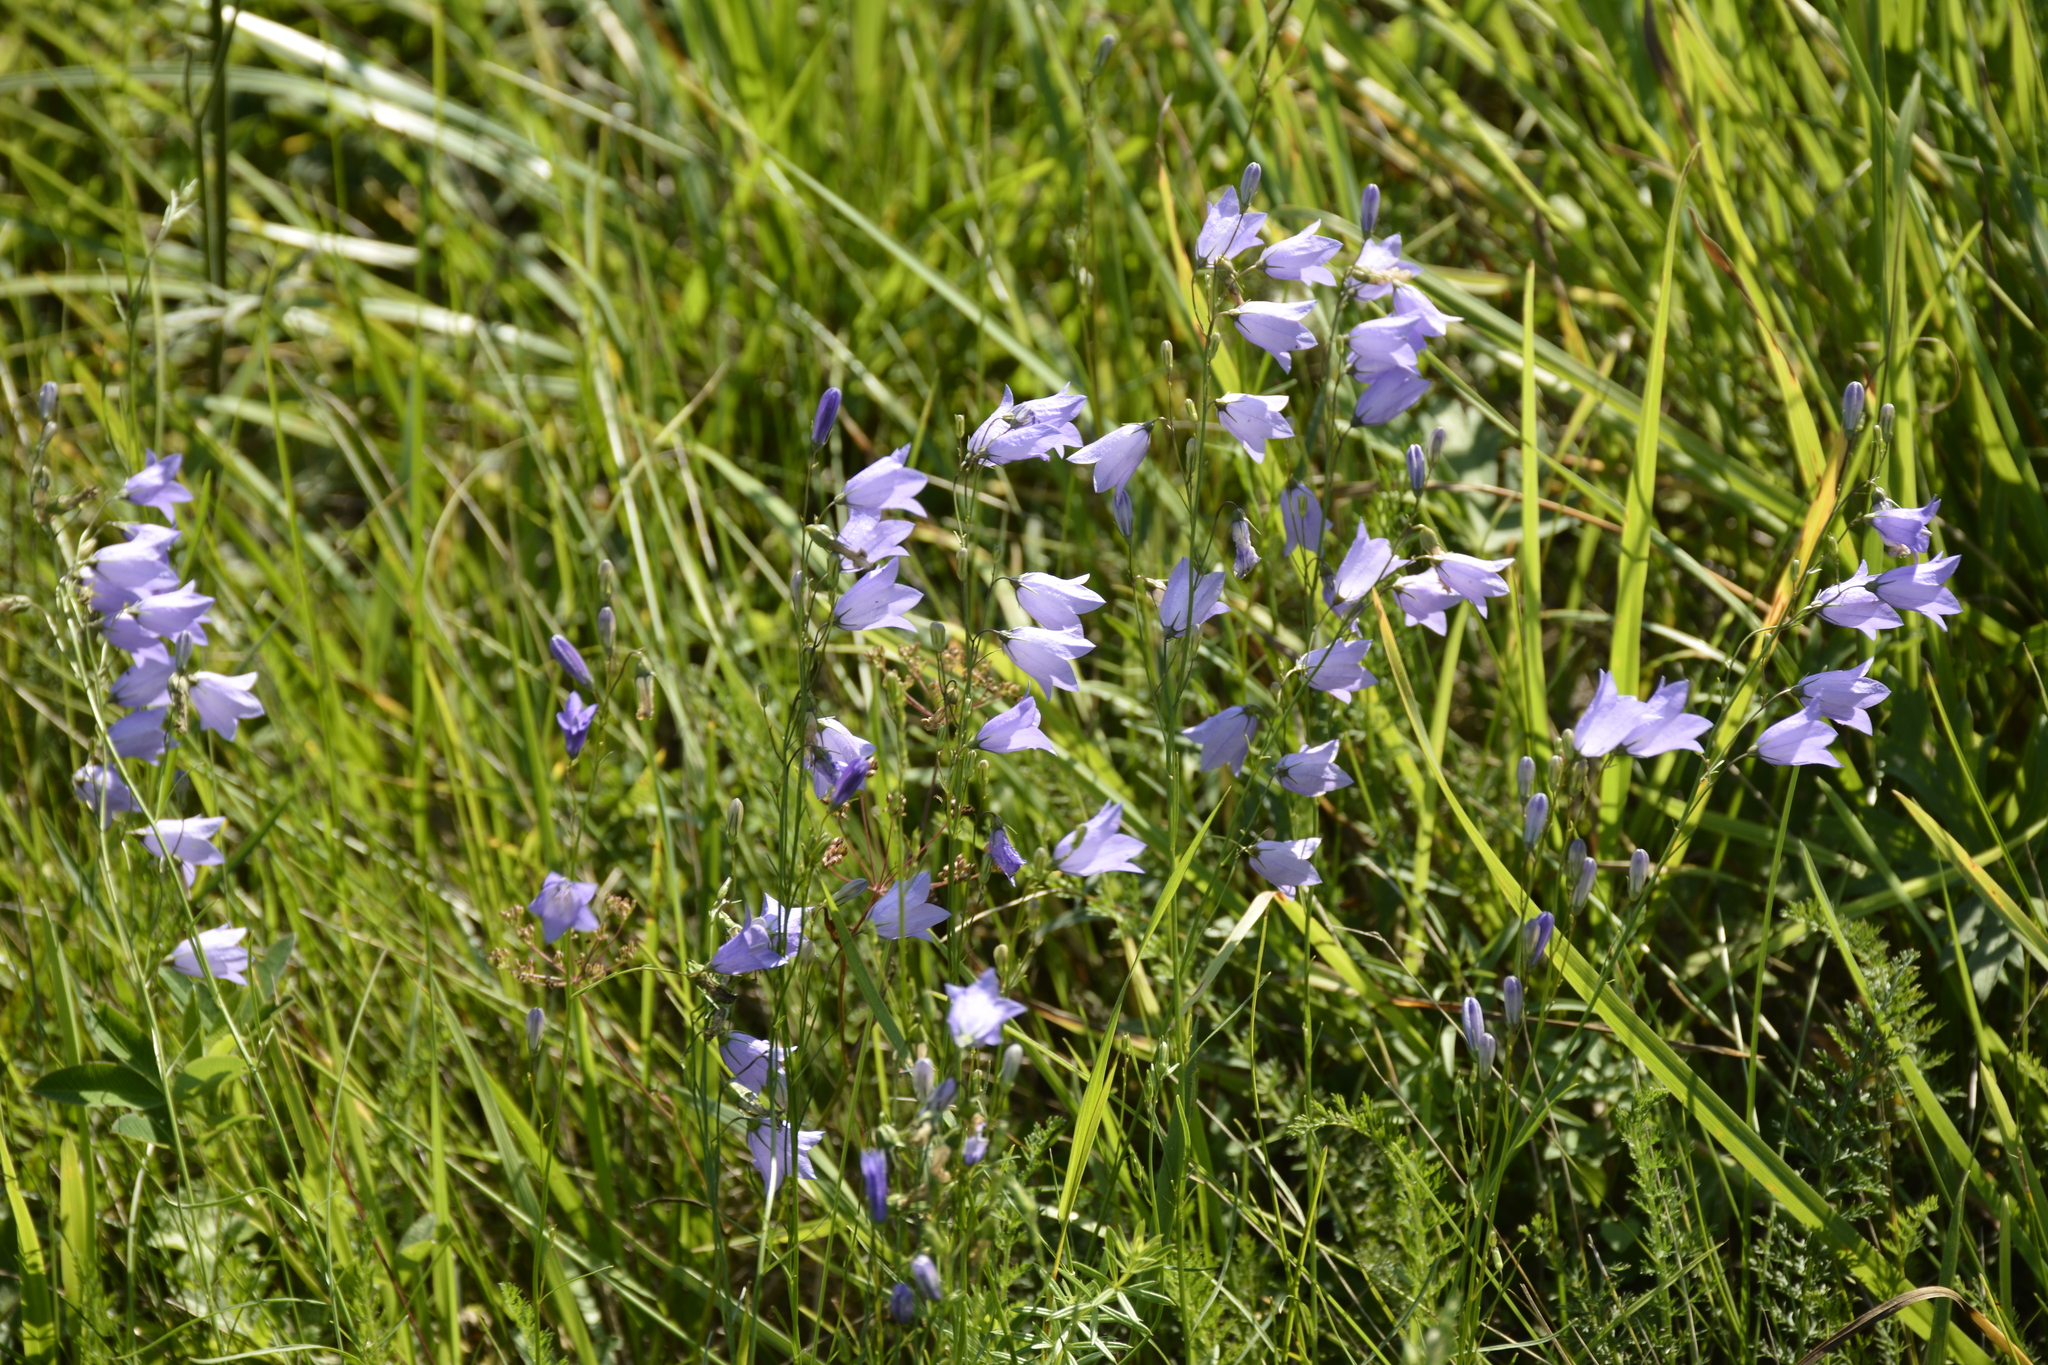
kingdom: Plantae
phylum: Tracheophyta
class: Magnoliopsida
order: Asterales
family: Campanulaceae
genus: Campanula
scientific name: Campanula rotundifolia
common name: Harebell
